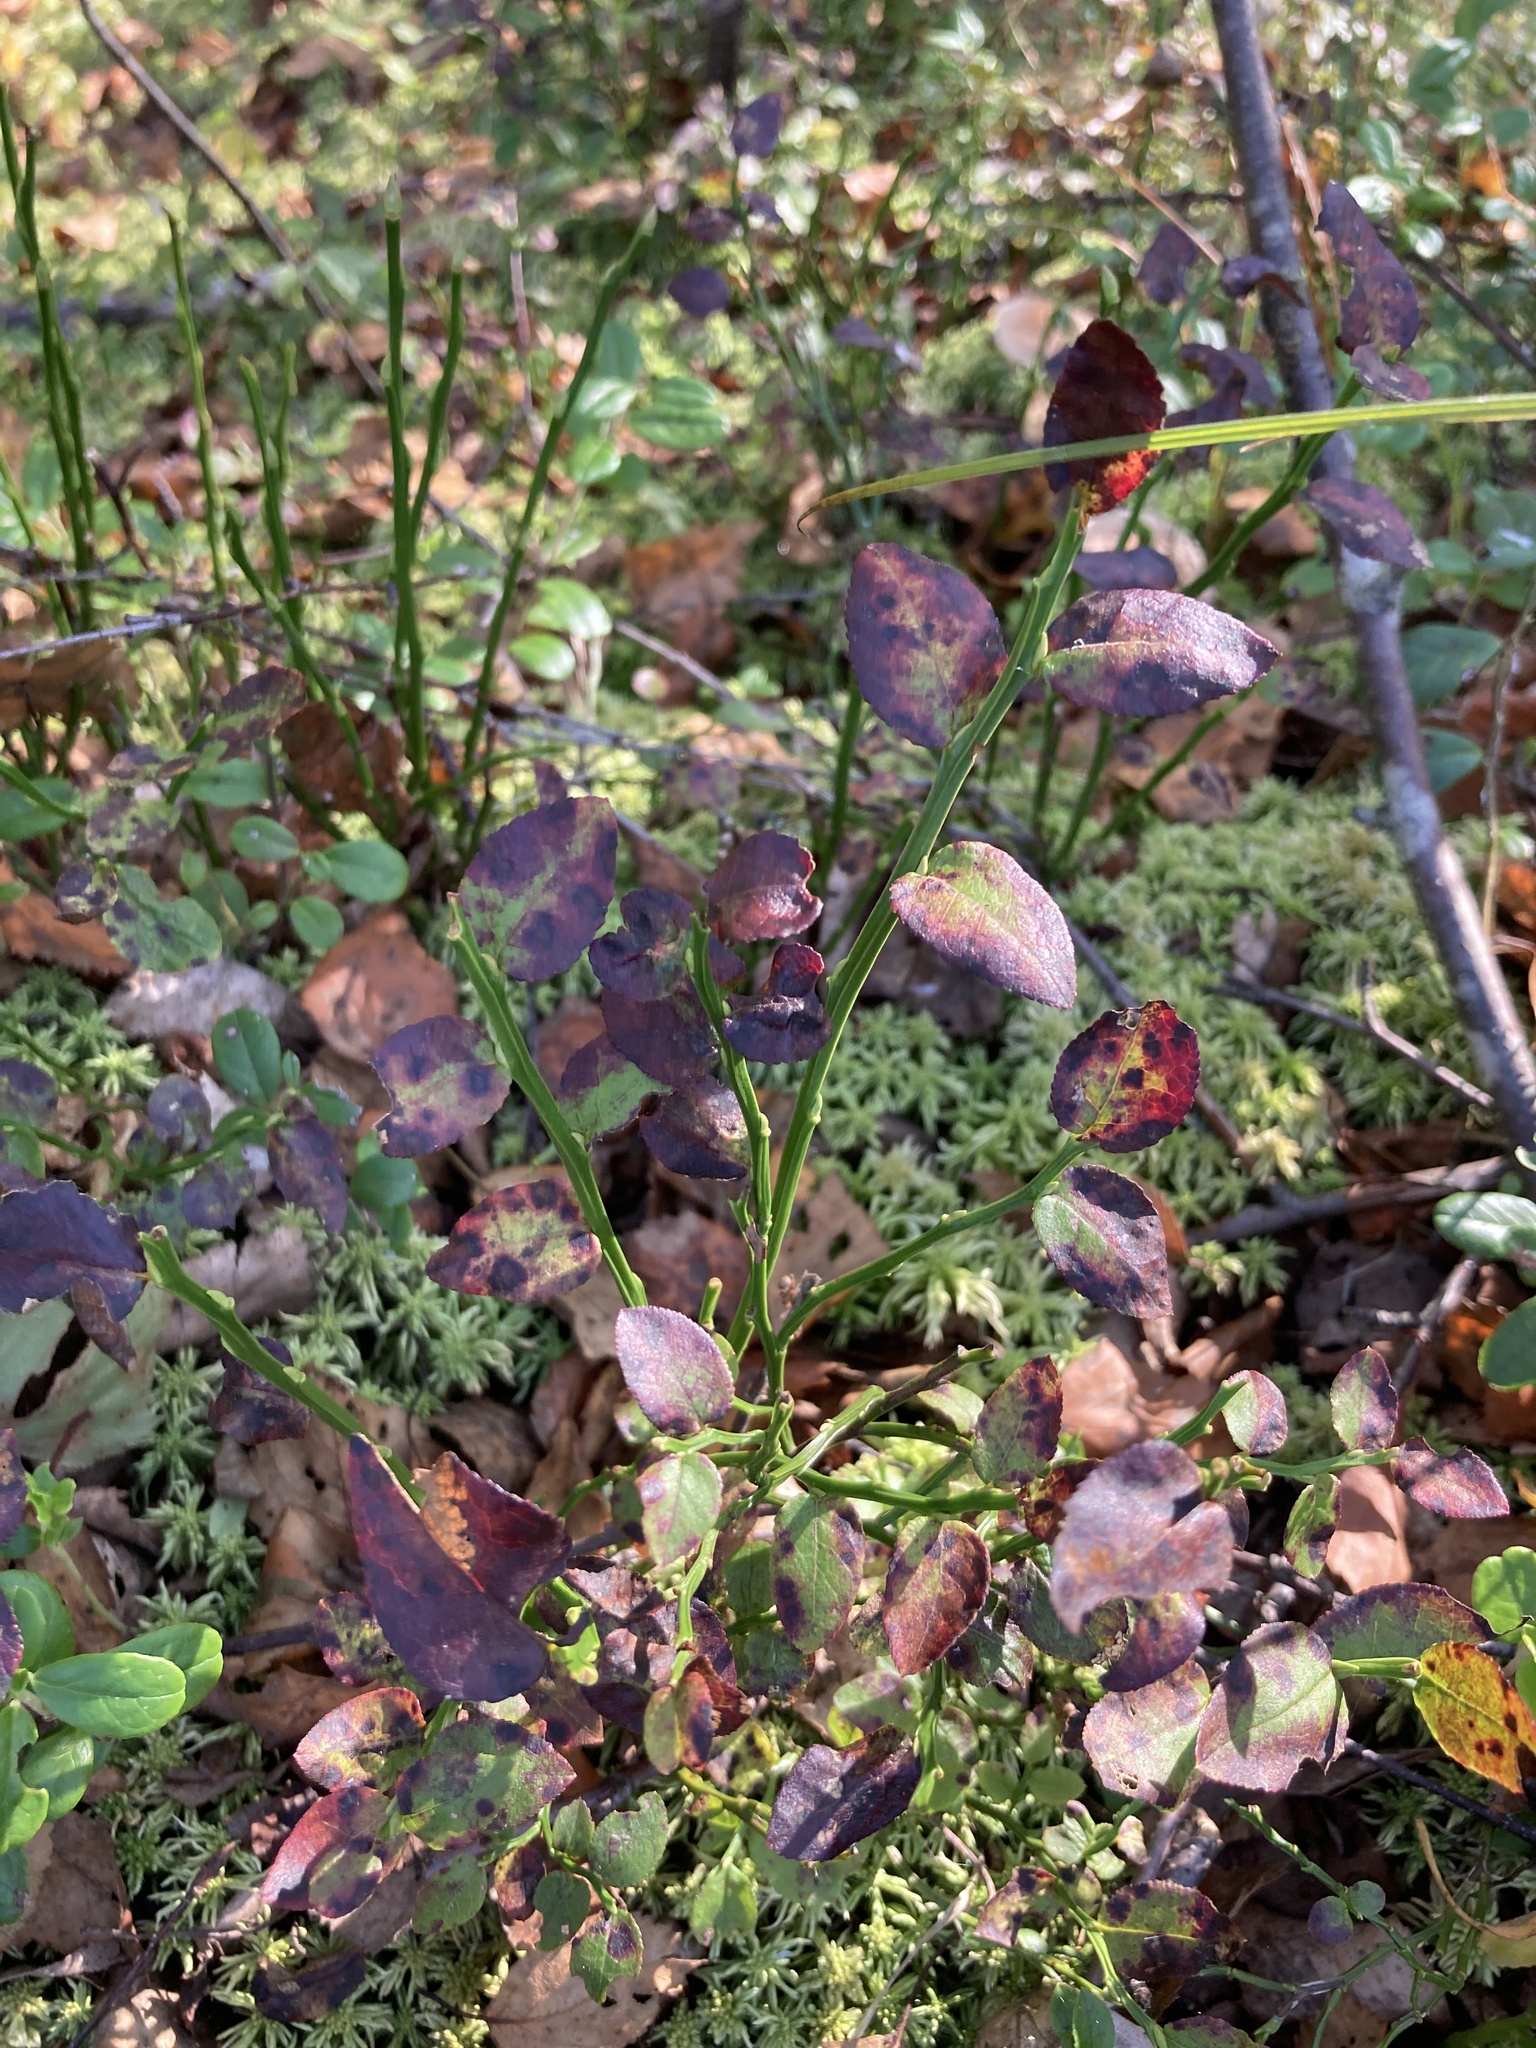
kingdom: Plantae
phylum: Tracheophyta
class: Magnoliopsida
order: Ericales
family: Ericaceae
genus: Vaccinium
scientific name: Vaccinium myrtillus
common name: Bilberry
